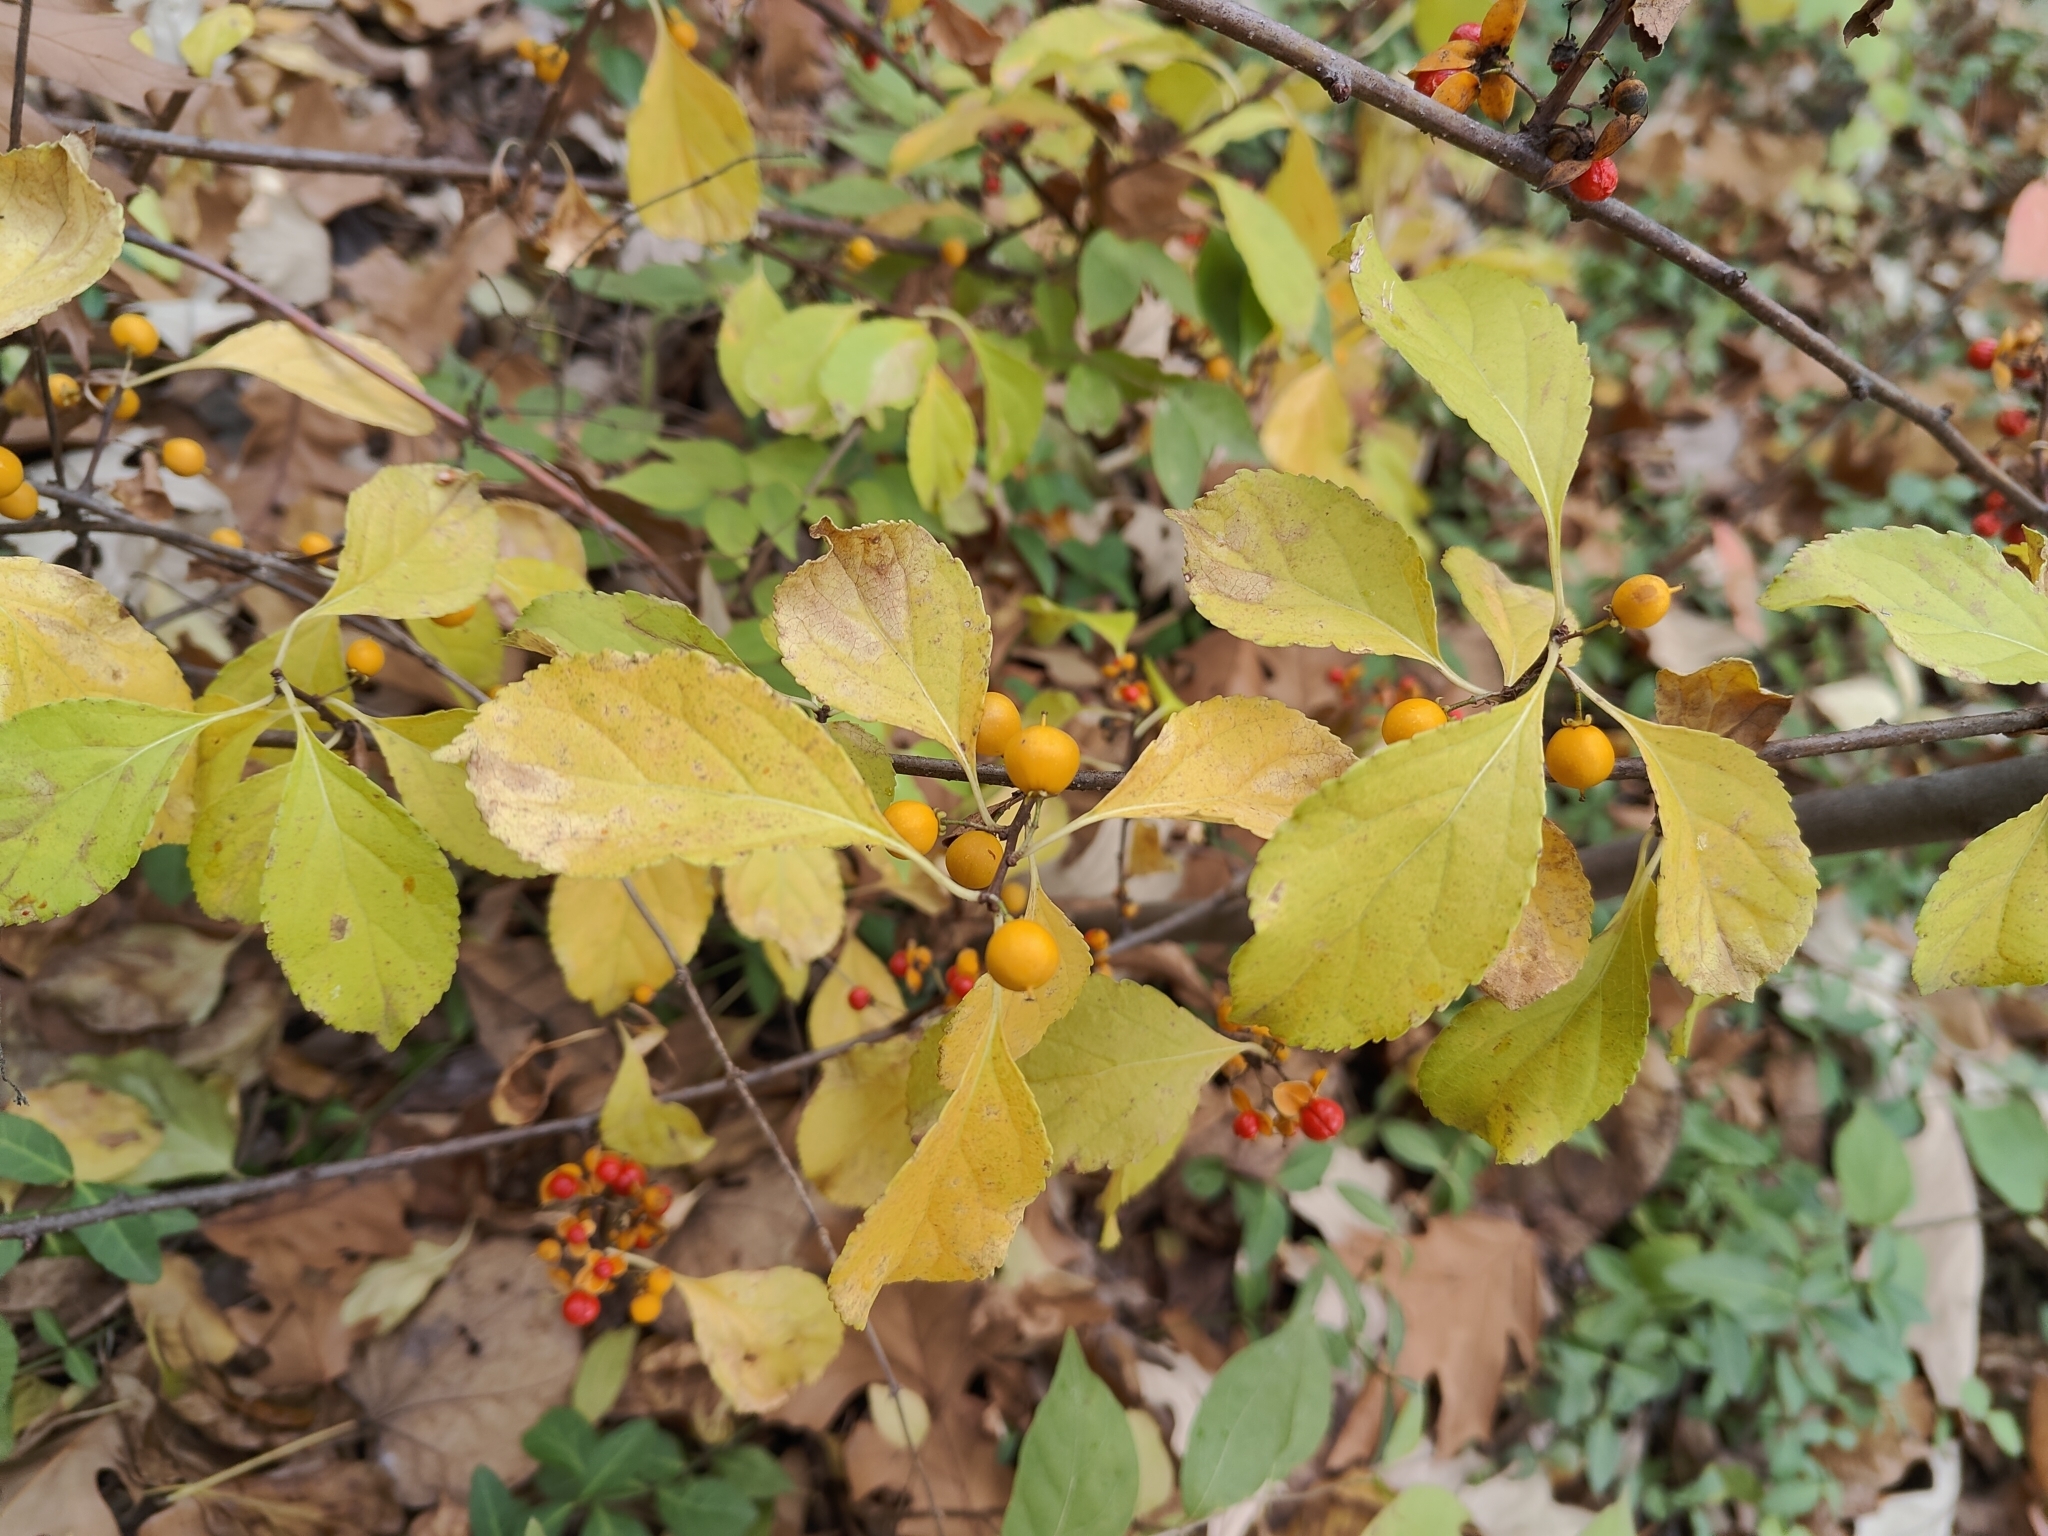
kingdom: Plantae
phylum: Tracheophyta
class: Magnoliopsida
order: Celastrales
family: Celastraceae
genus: Celastrus
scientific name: Celastrus orbiculatus
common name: Oriental bittersweet
